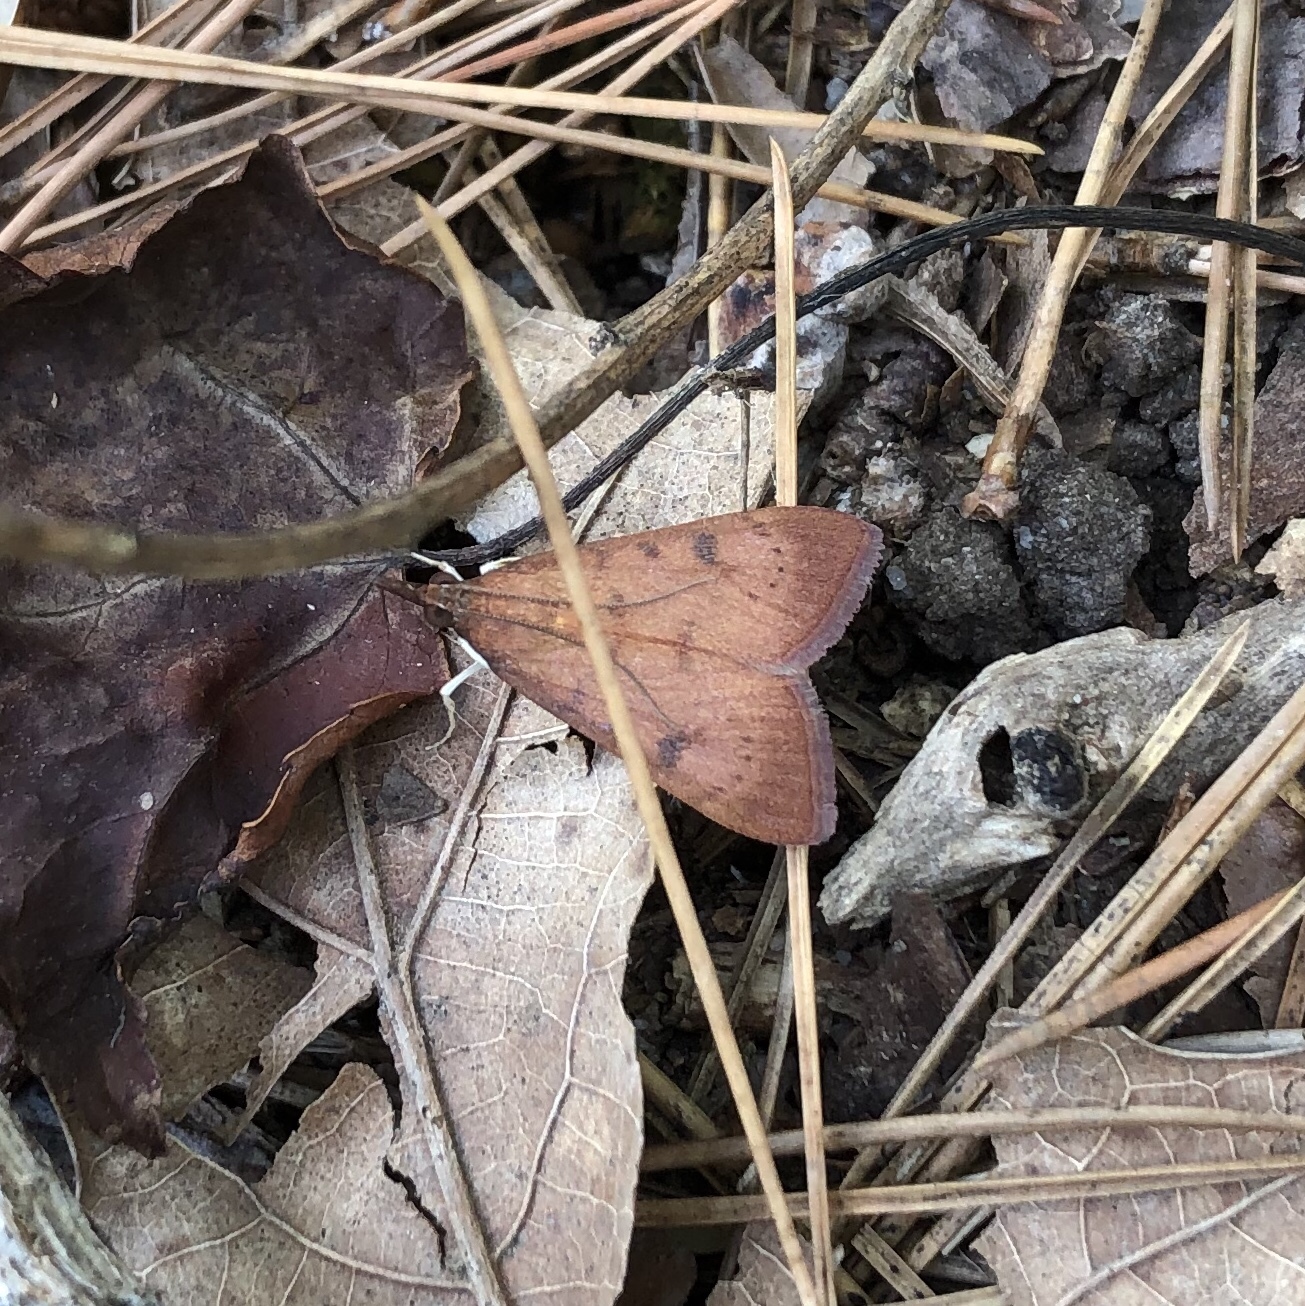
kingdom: Animalia
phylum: Arthropoda
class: Insecta
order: Lepidoptera
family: Crambidae
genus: Uresiphita
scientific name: Uresiphita reversalis
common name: Genista broom moth
